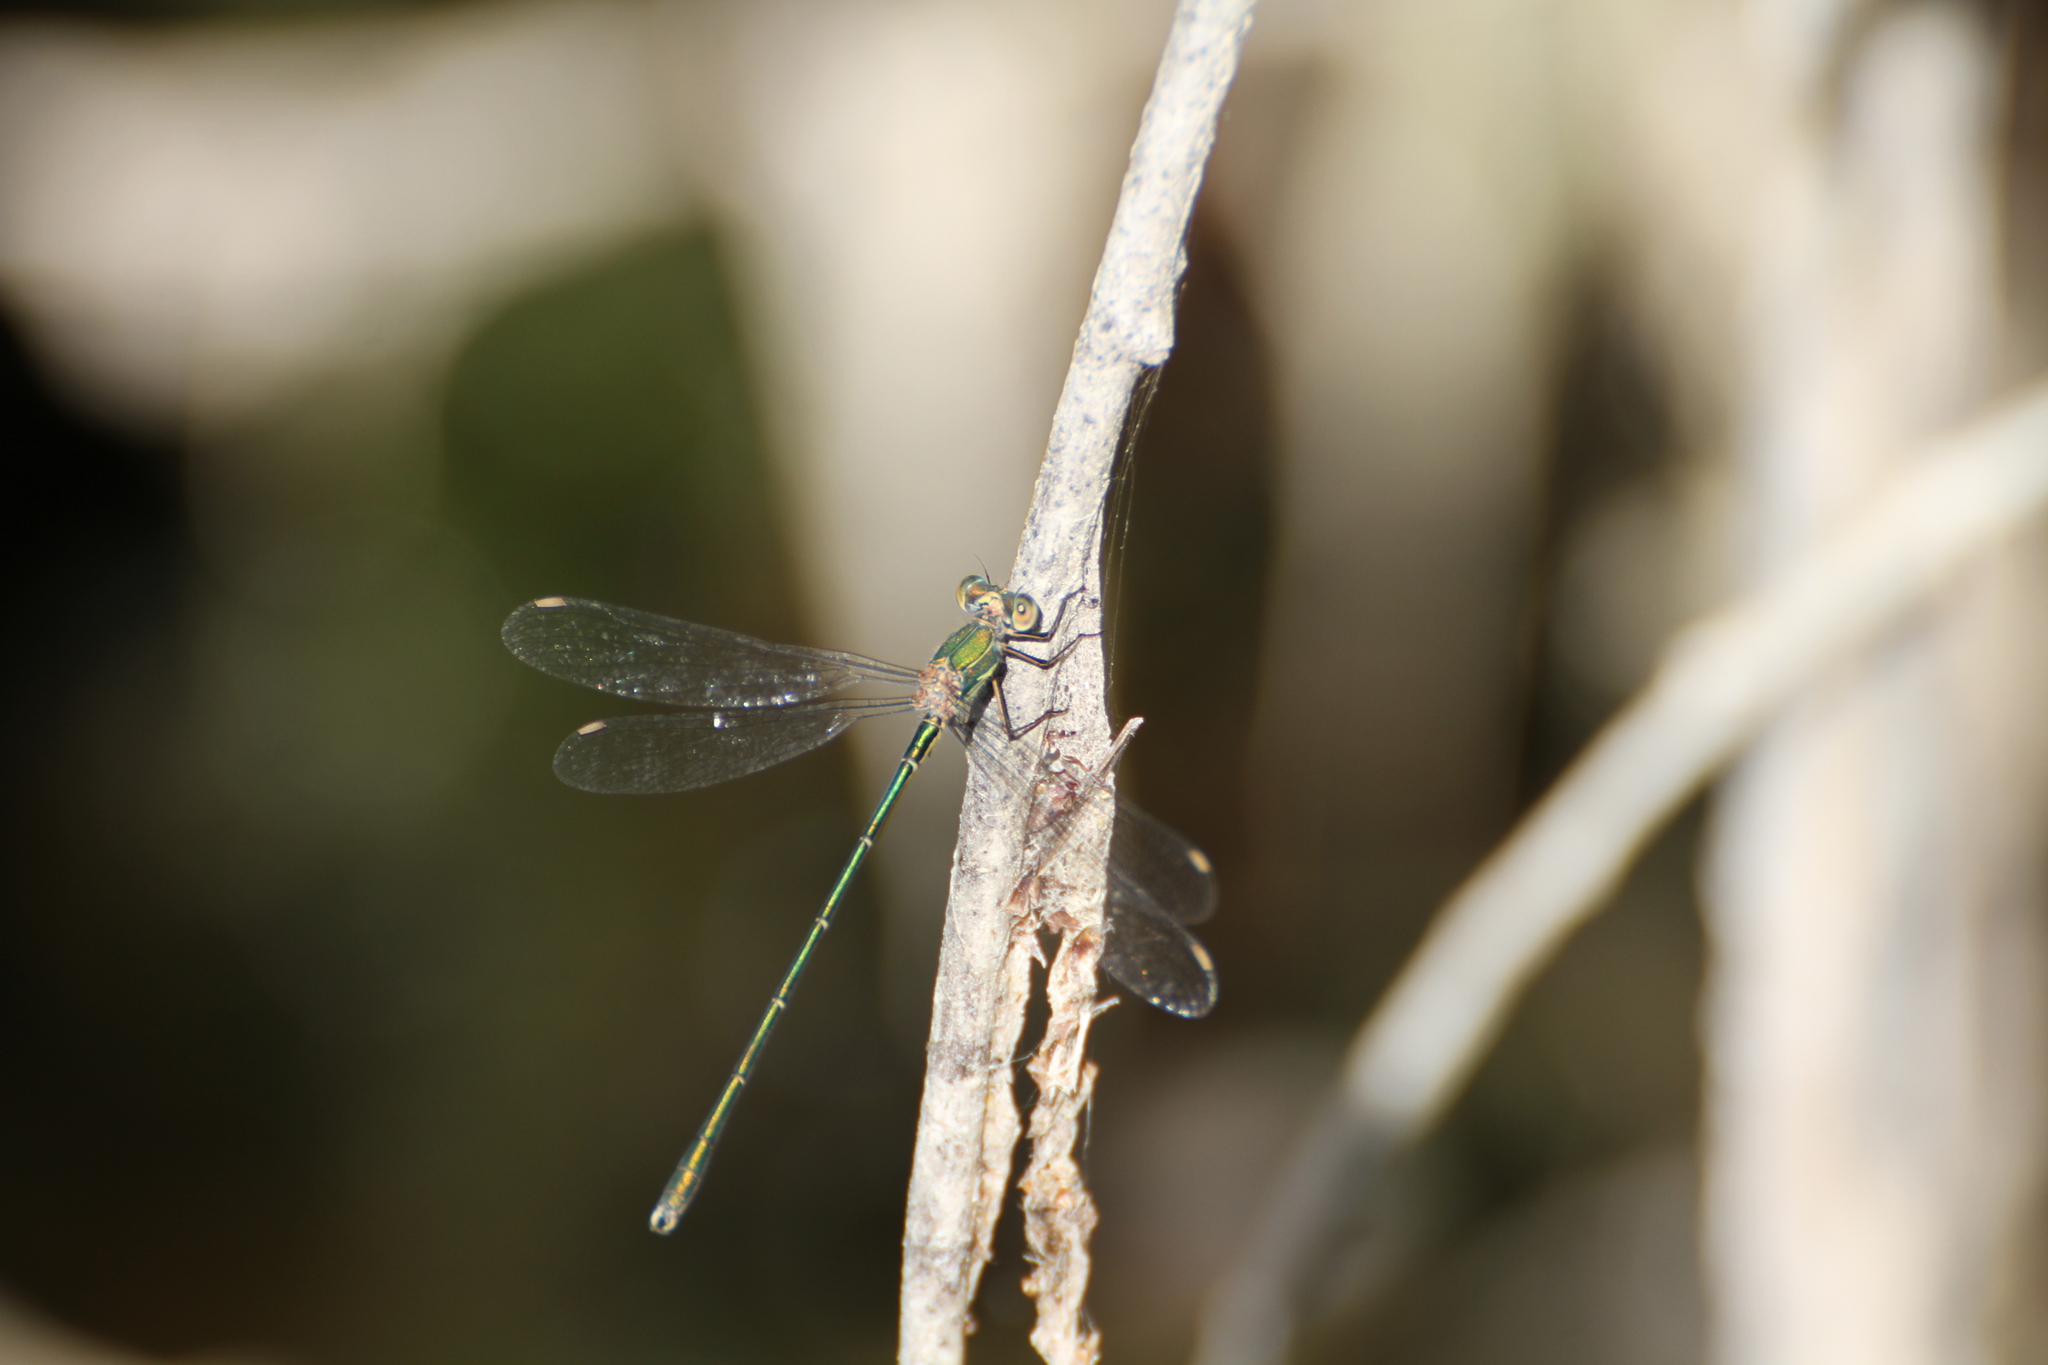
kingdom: Animalia
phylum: Arthropoda
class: Insecta
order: Odonata
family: Lestidae
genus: Chalcolestes
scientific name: Chalcolestes viridis
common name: Green emerald damselfly
